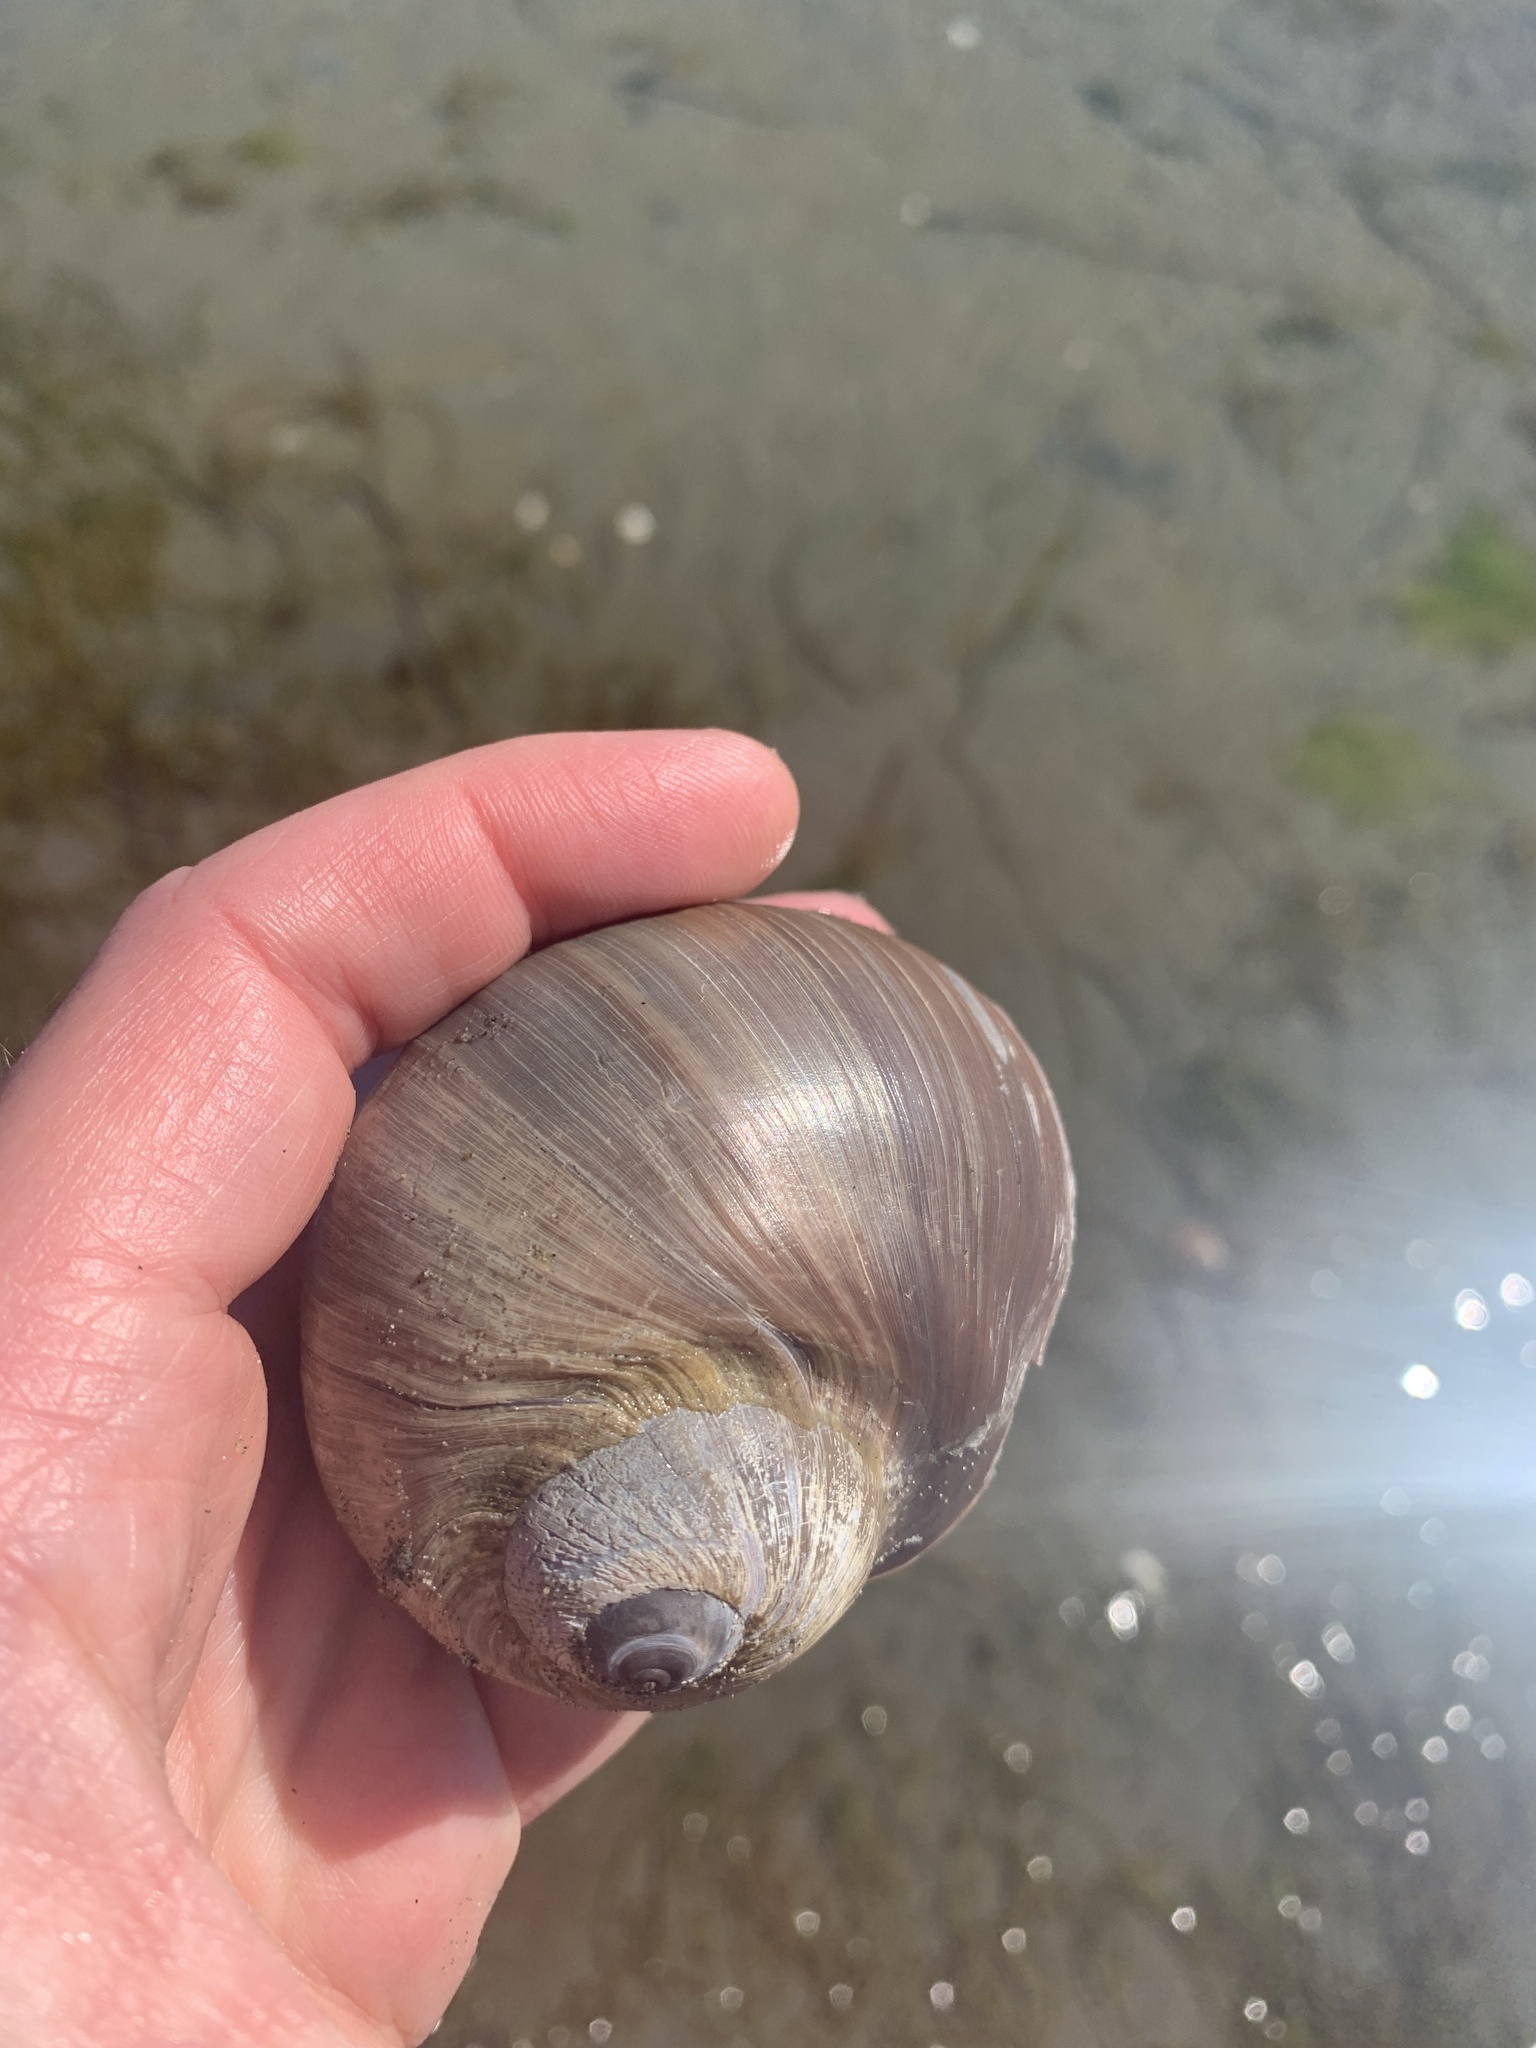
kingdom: Animalia
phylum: Mollusca
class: Gastropoda
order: Littorinimorpha
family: Naticidae
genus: Neverita
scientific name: Neverita lewisii
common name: Lewis' moonsnail
